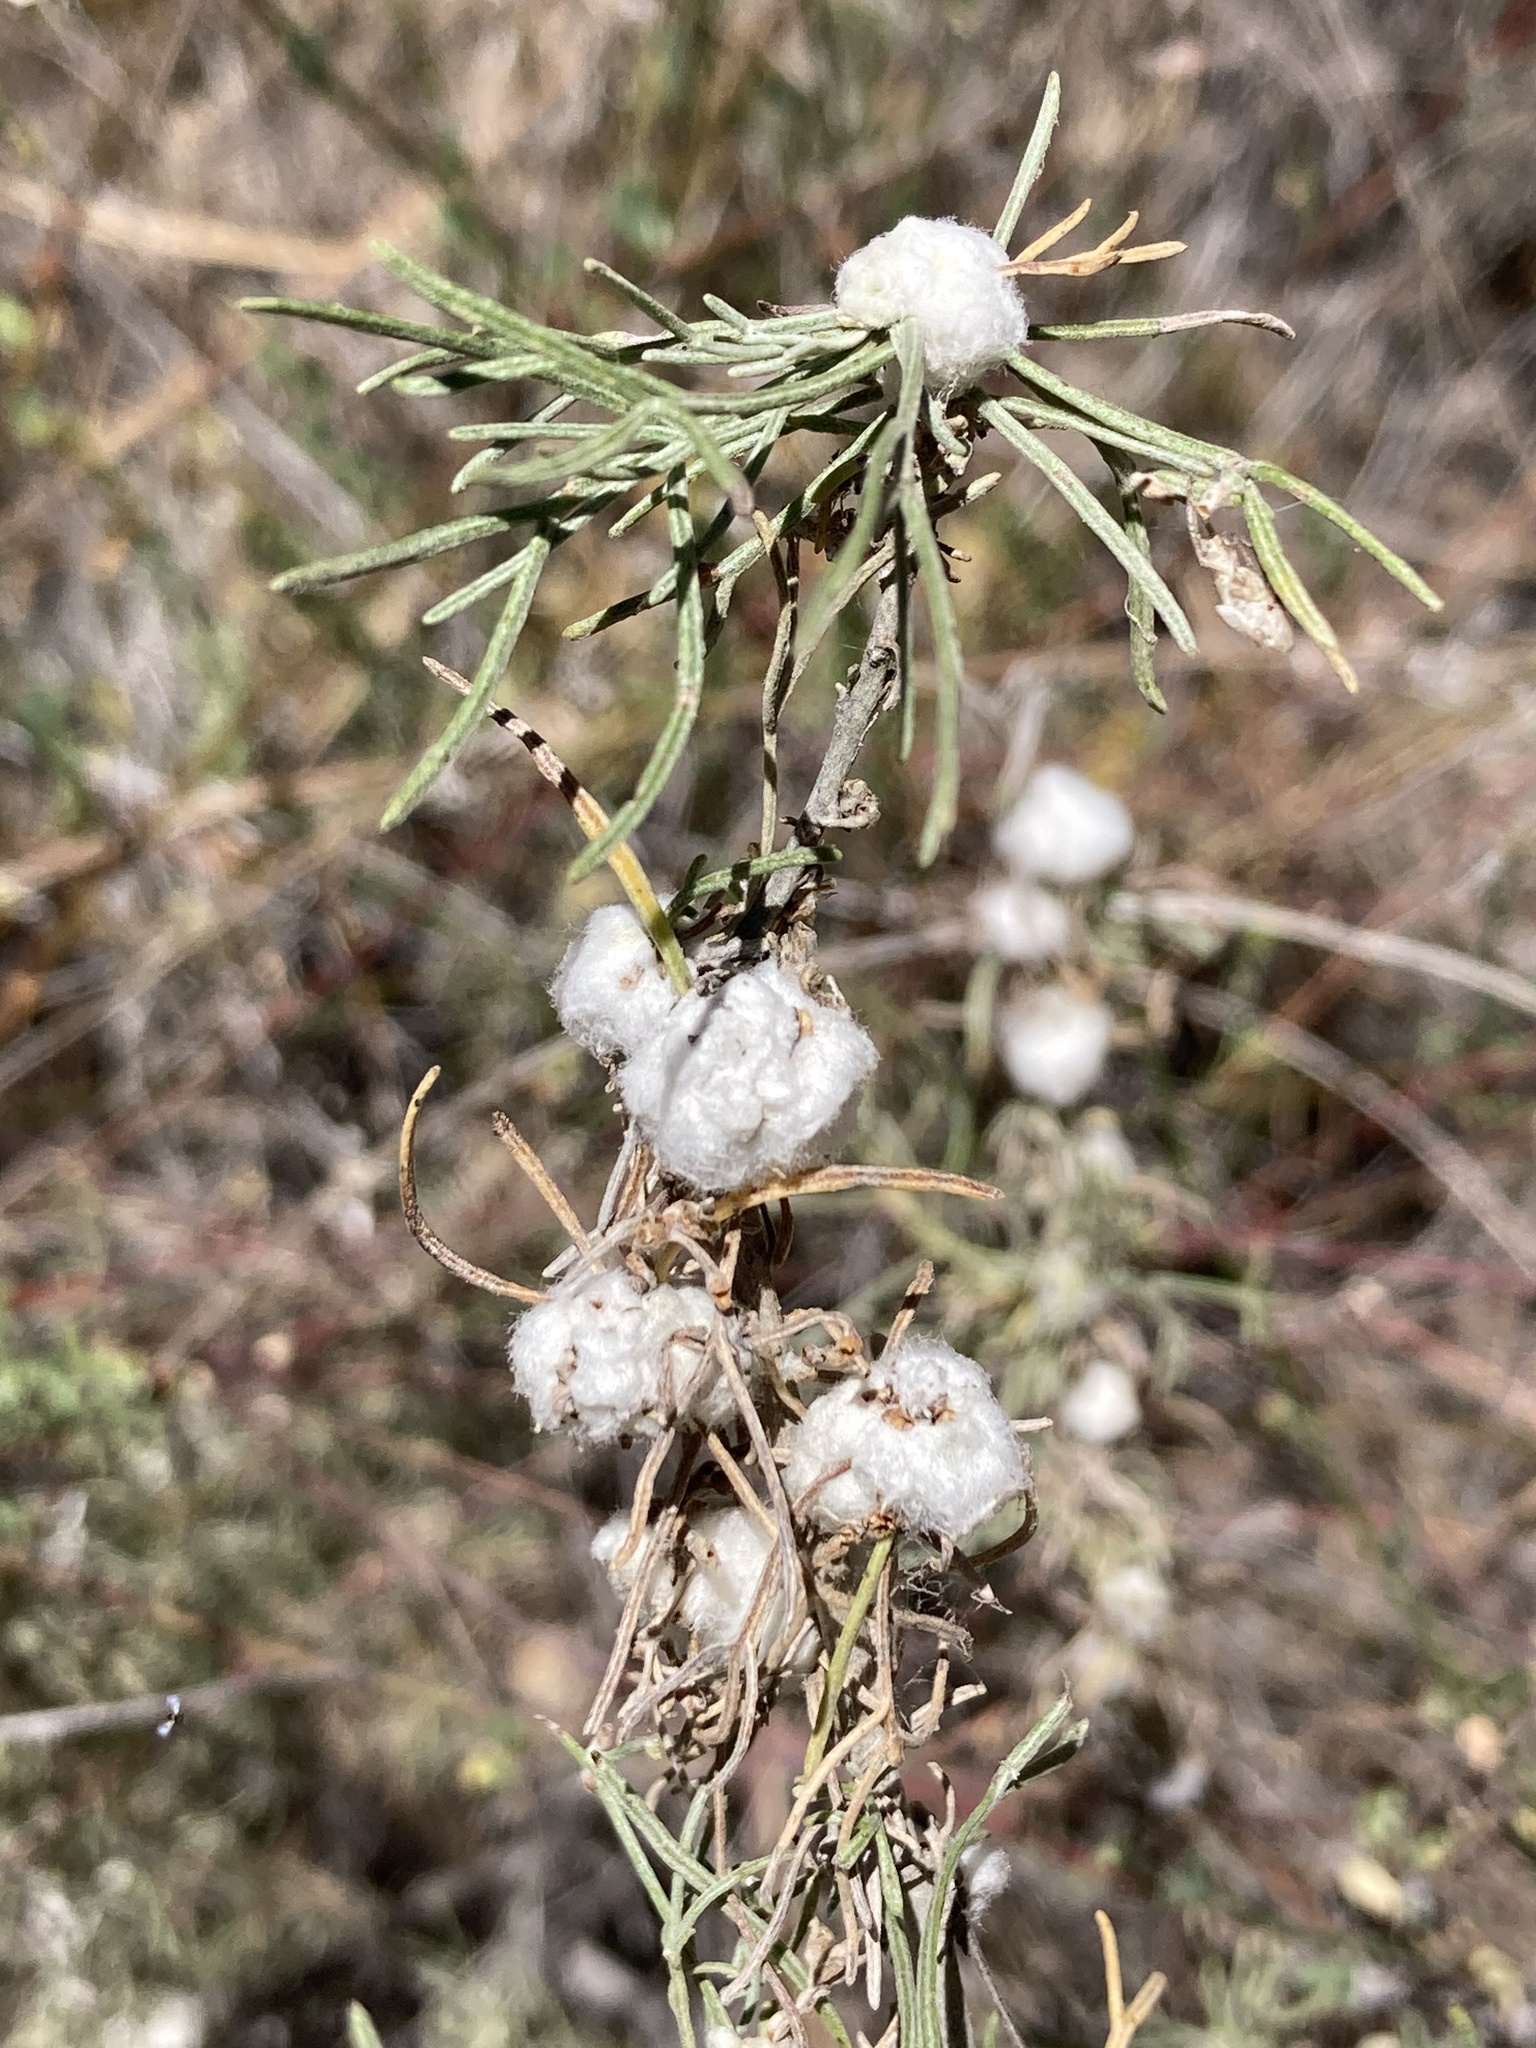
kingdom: Animalia
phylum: Arthropoda
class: Insecta
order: Diptera
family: Cecidomyiidae
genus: Rhopalomyia
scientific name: Rhopalomyia floccosa
